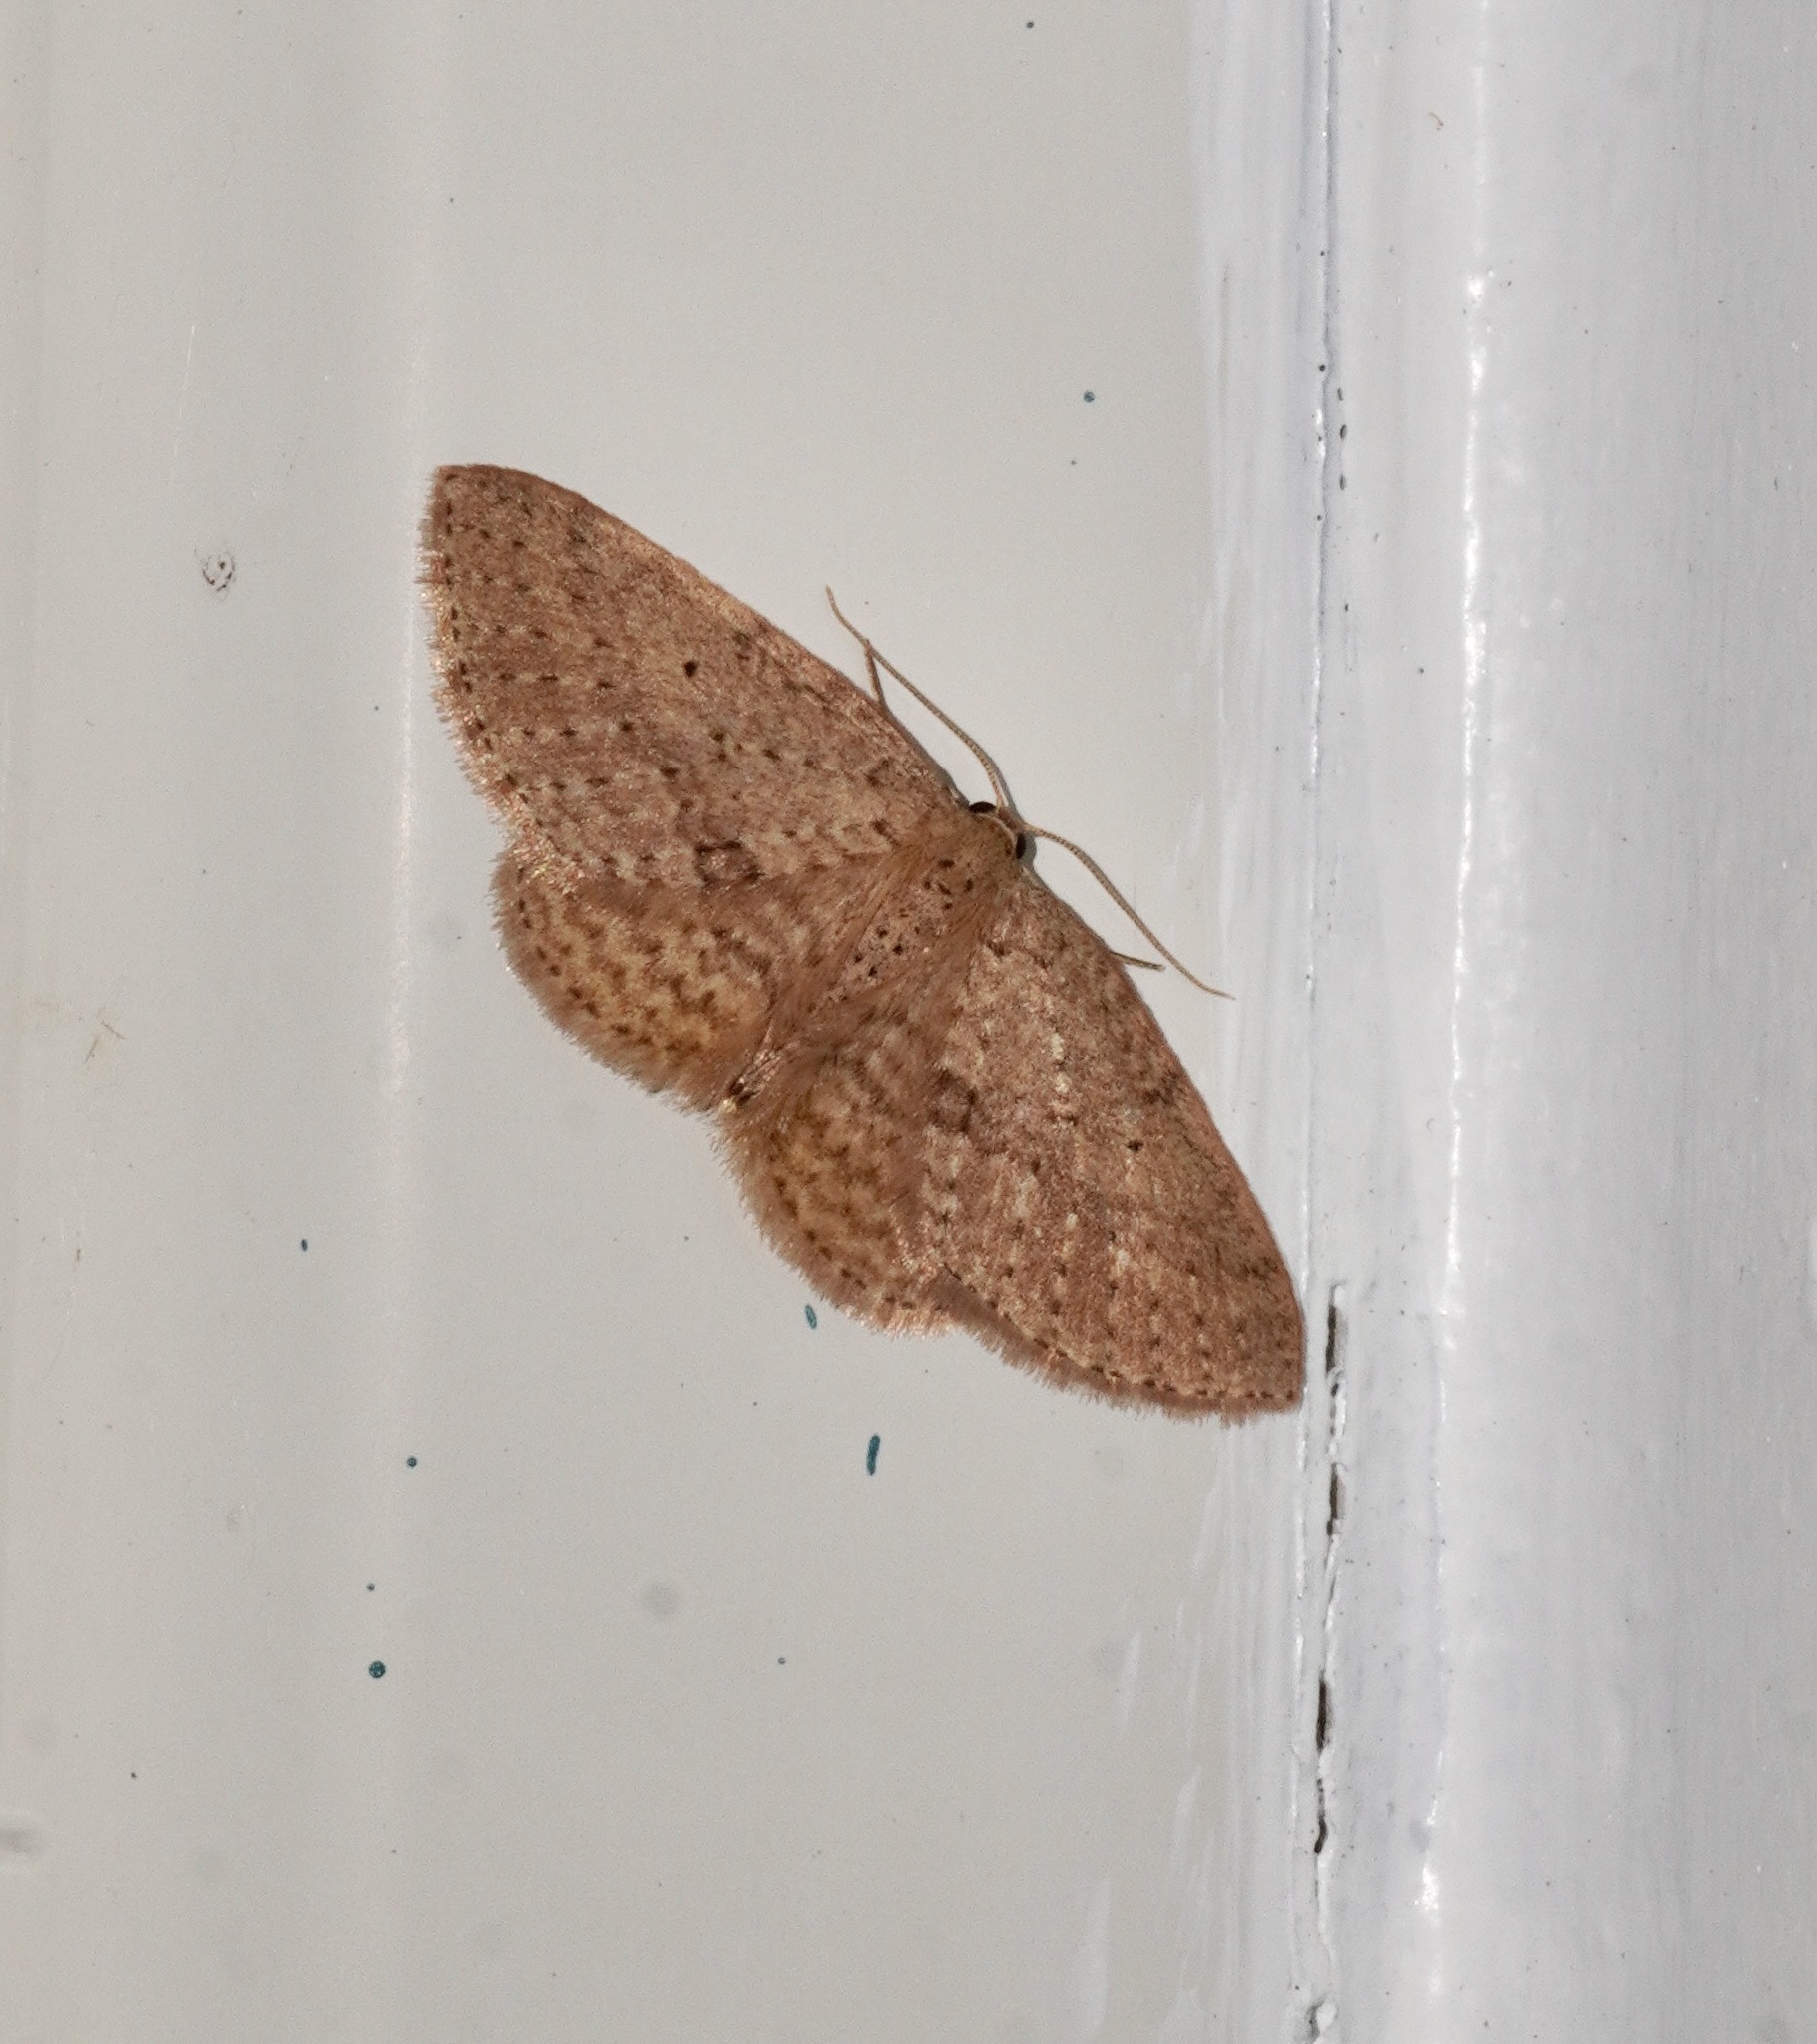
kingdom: Animalia
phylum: Arthropoda
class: Insecta
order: Lepidoptera
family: Geometridae
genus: Poecilasthena
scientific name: Poecilasthena schistaria
